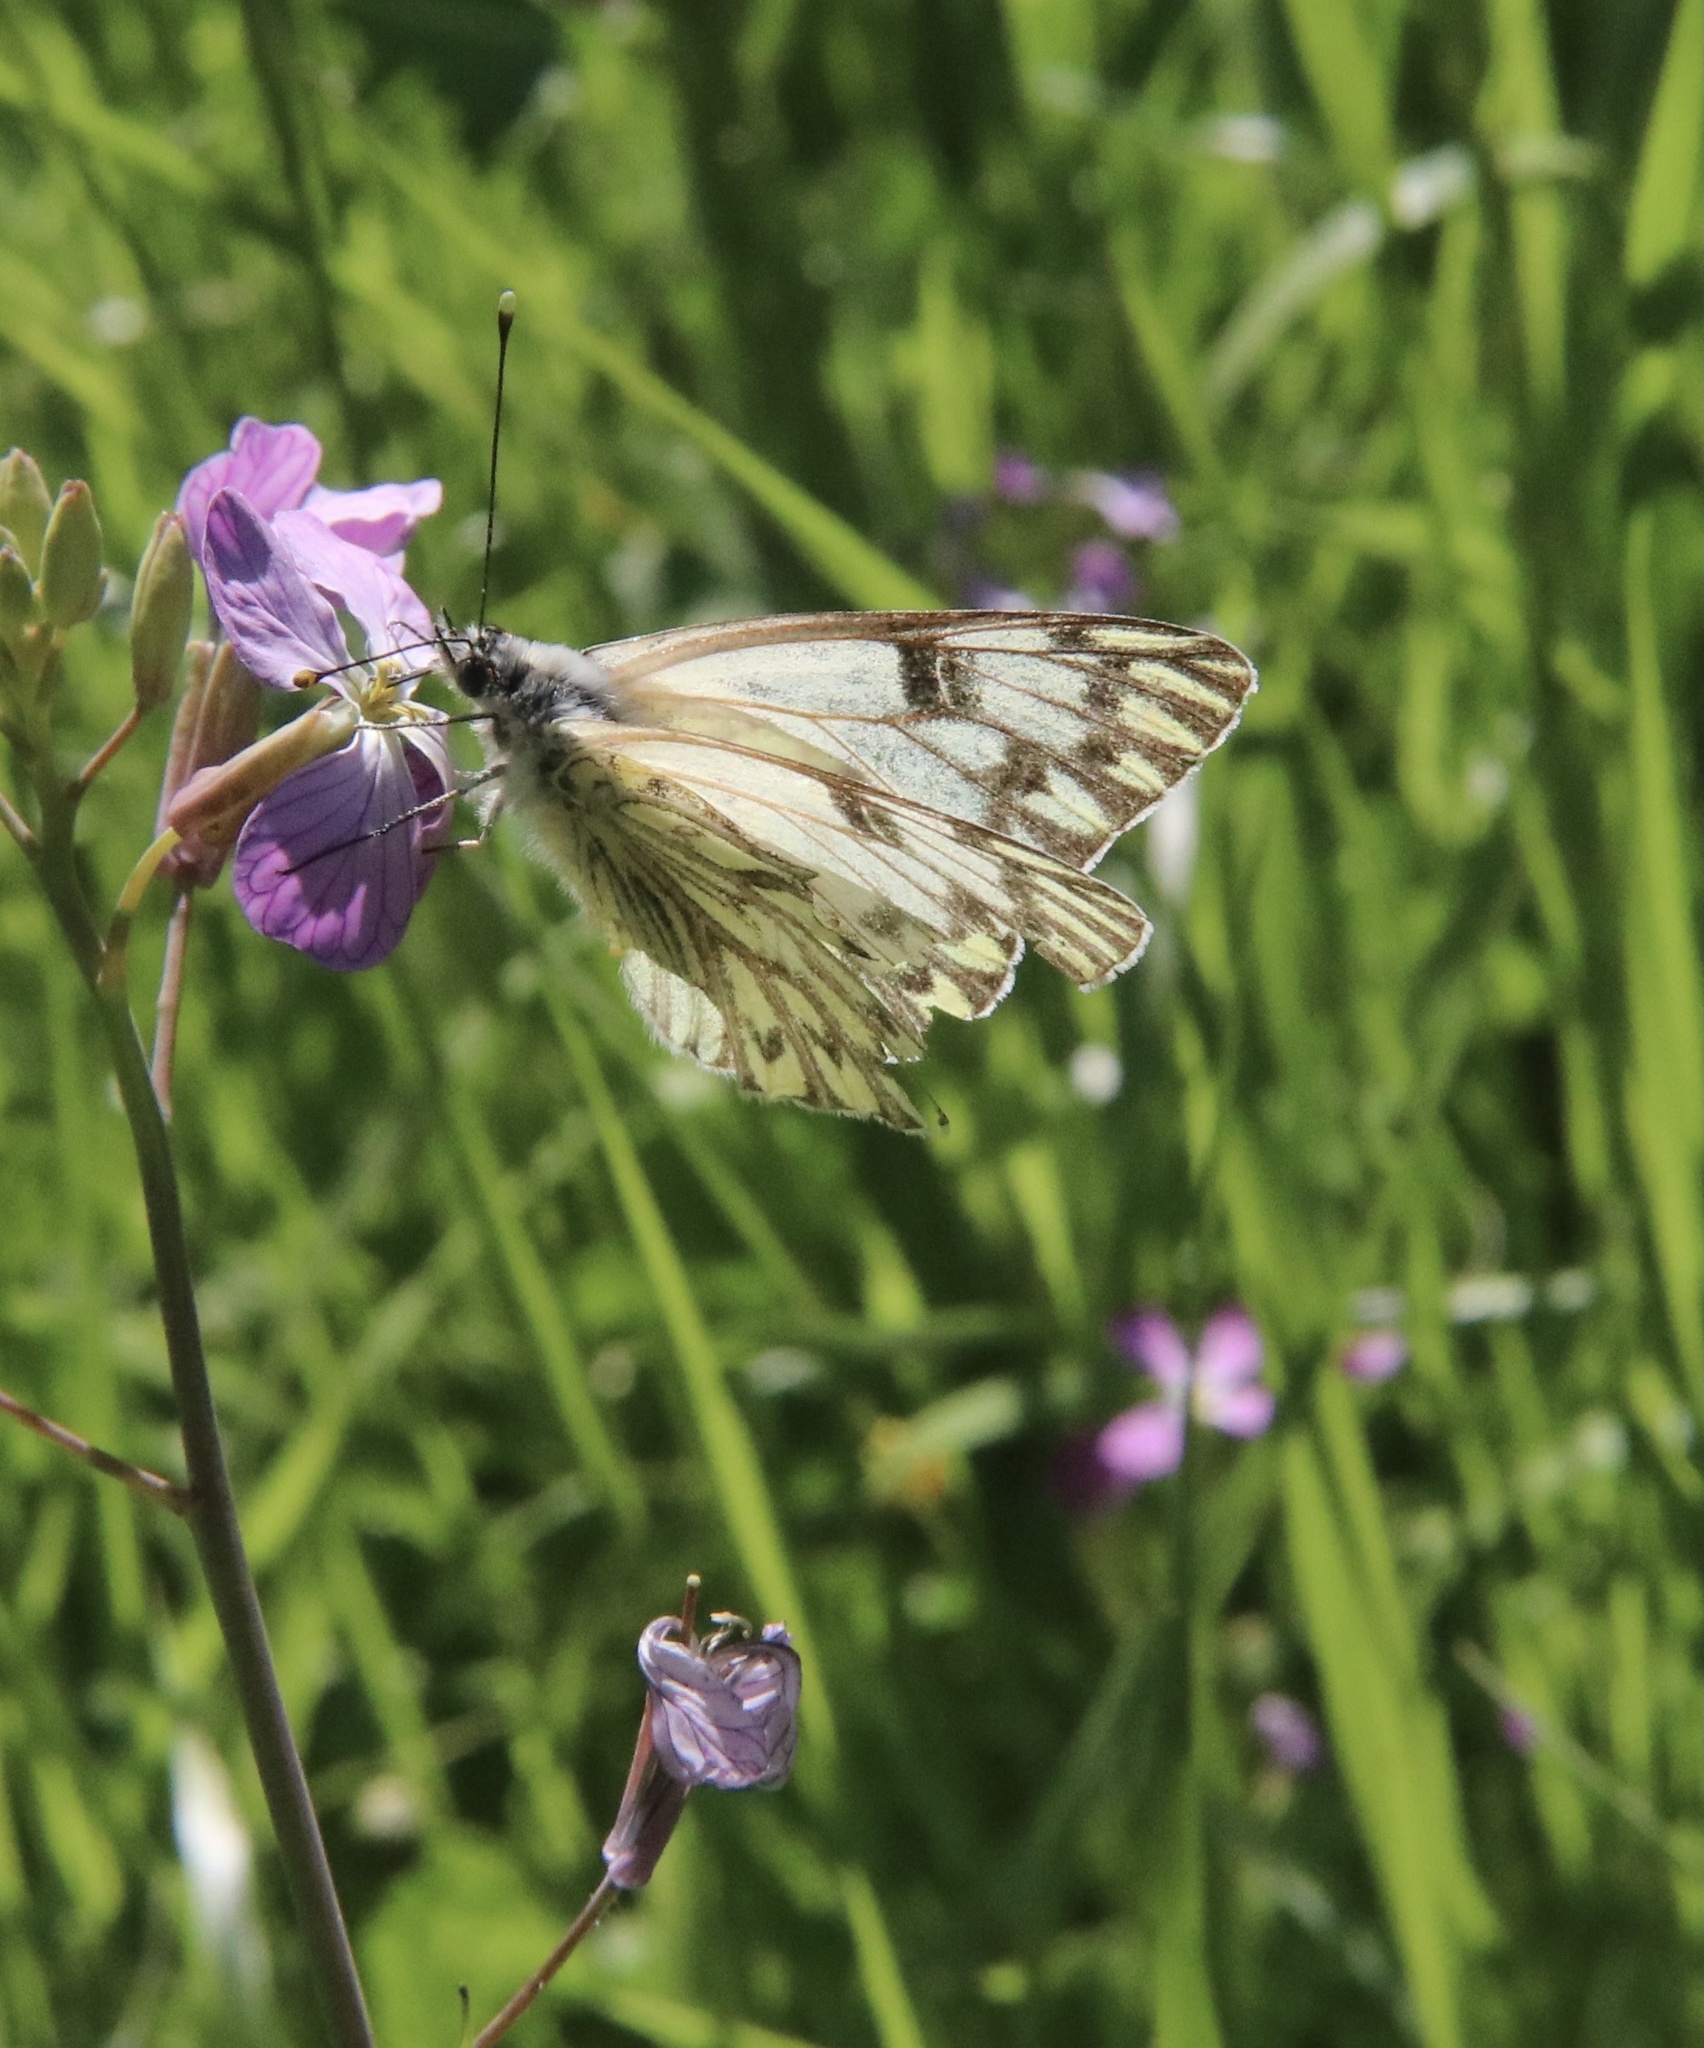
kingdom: Animalia
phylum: Arthropoda
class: Insecta
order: Lepidoptera
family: Pieridae
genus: Tatochila
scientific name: Tatochila autodice
